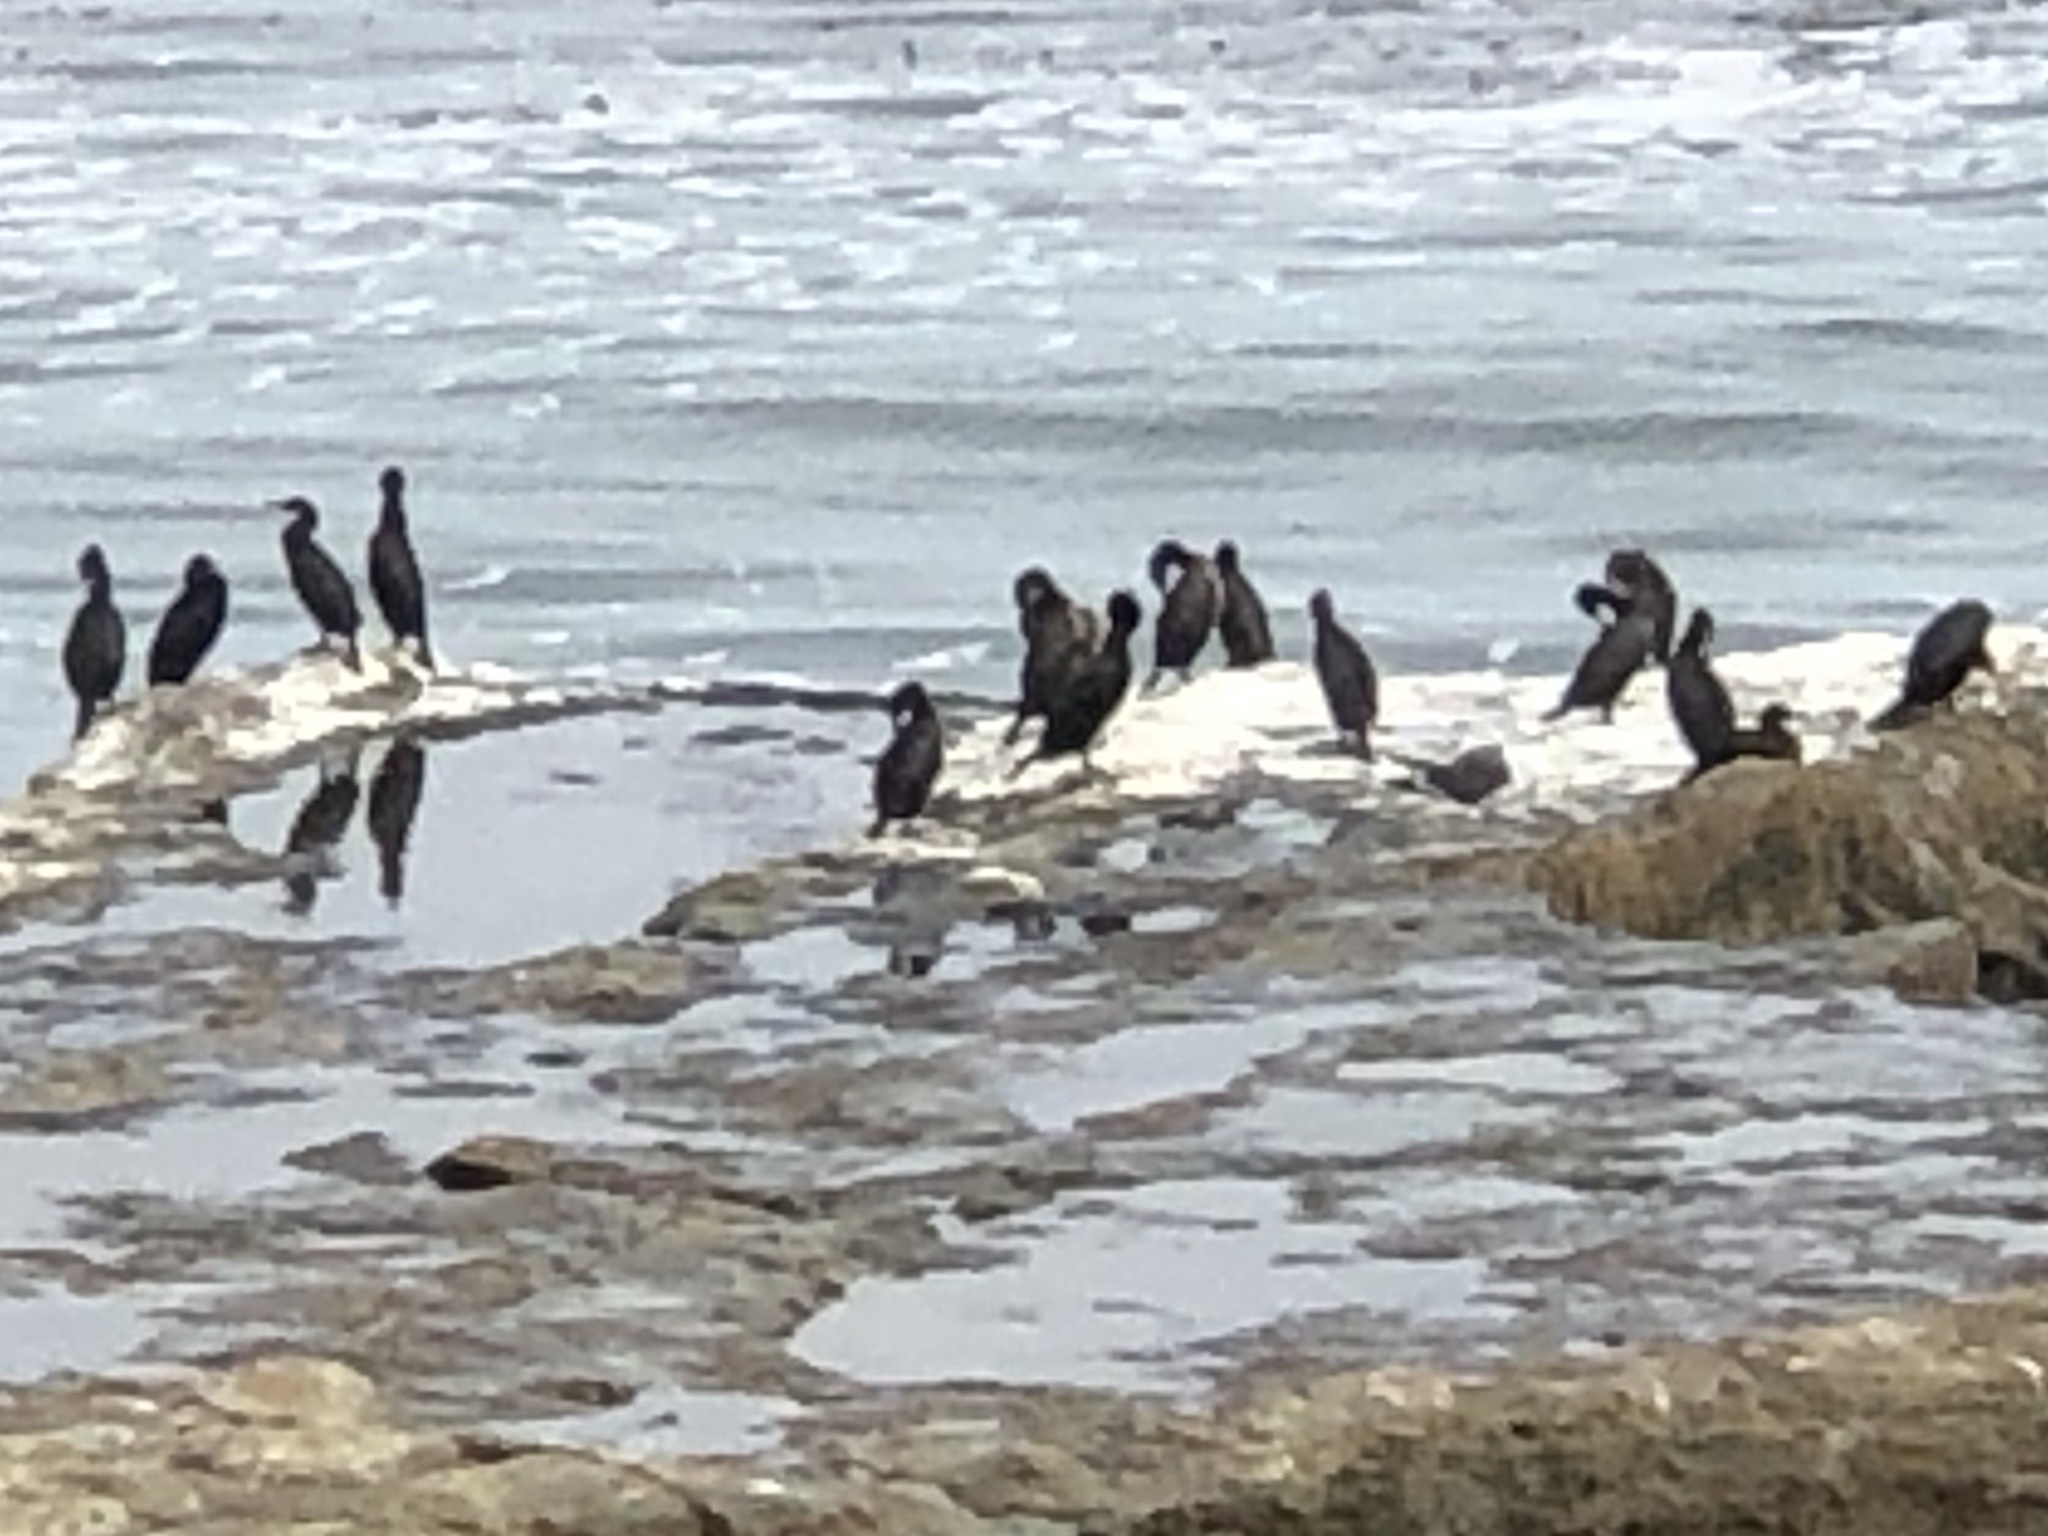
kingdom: Animalia
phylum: Chordata
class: Aves
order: Suliformes
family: Phalacrocoracidae
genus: Urile
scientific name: Urile penicillatus
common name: Brandt's cormorant
